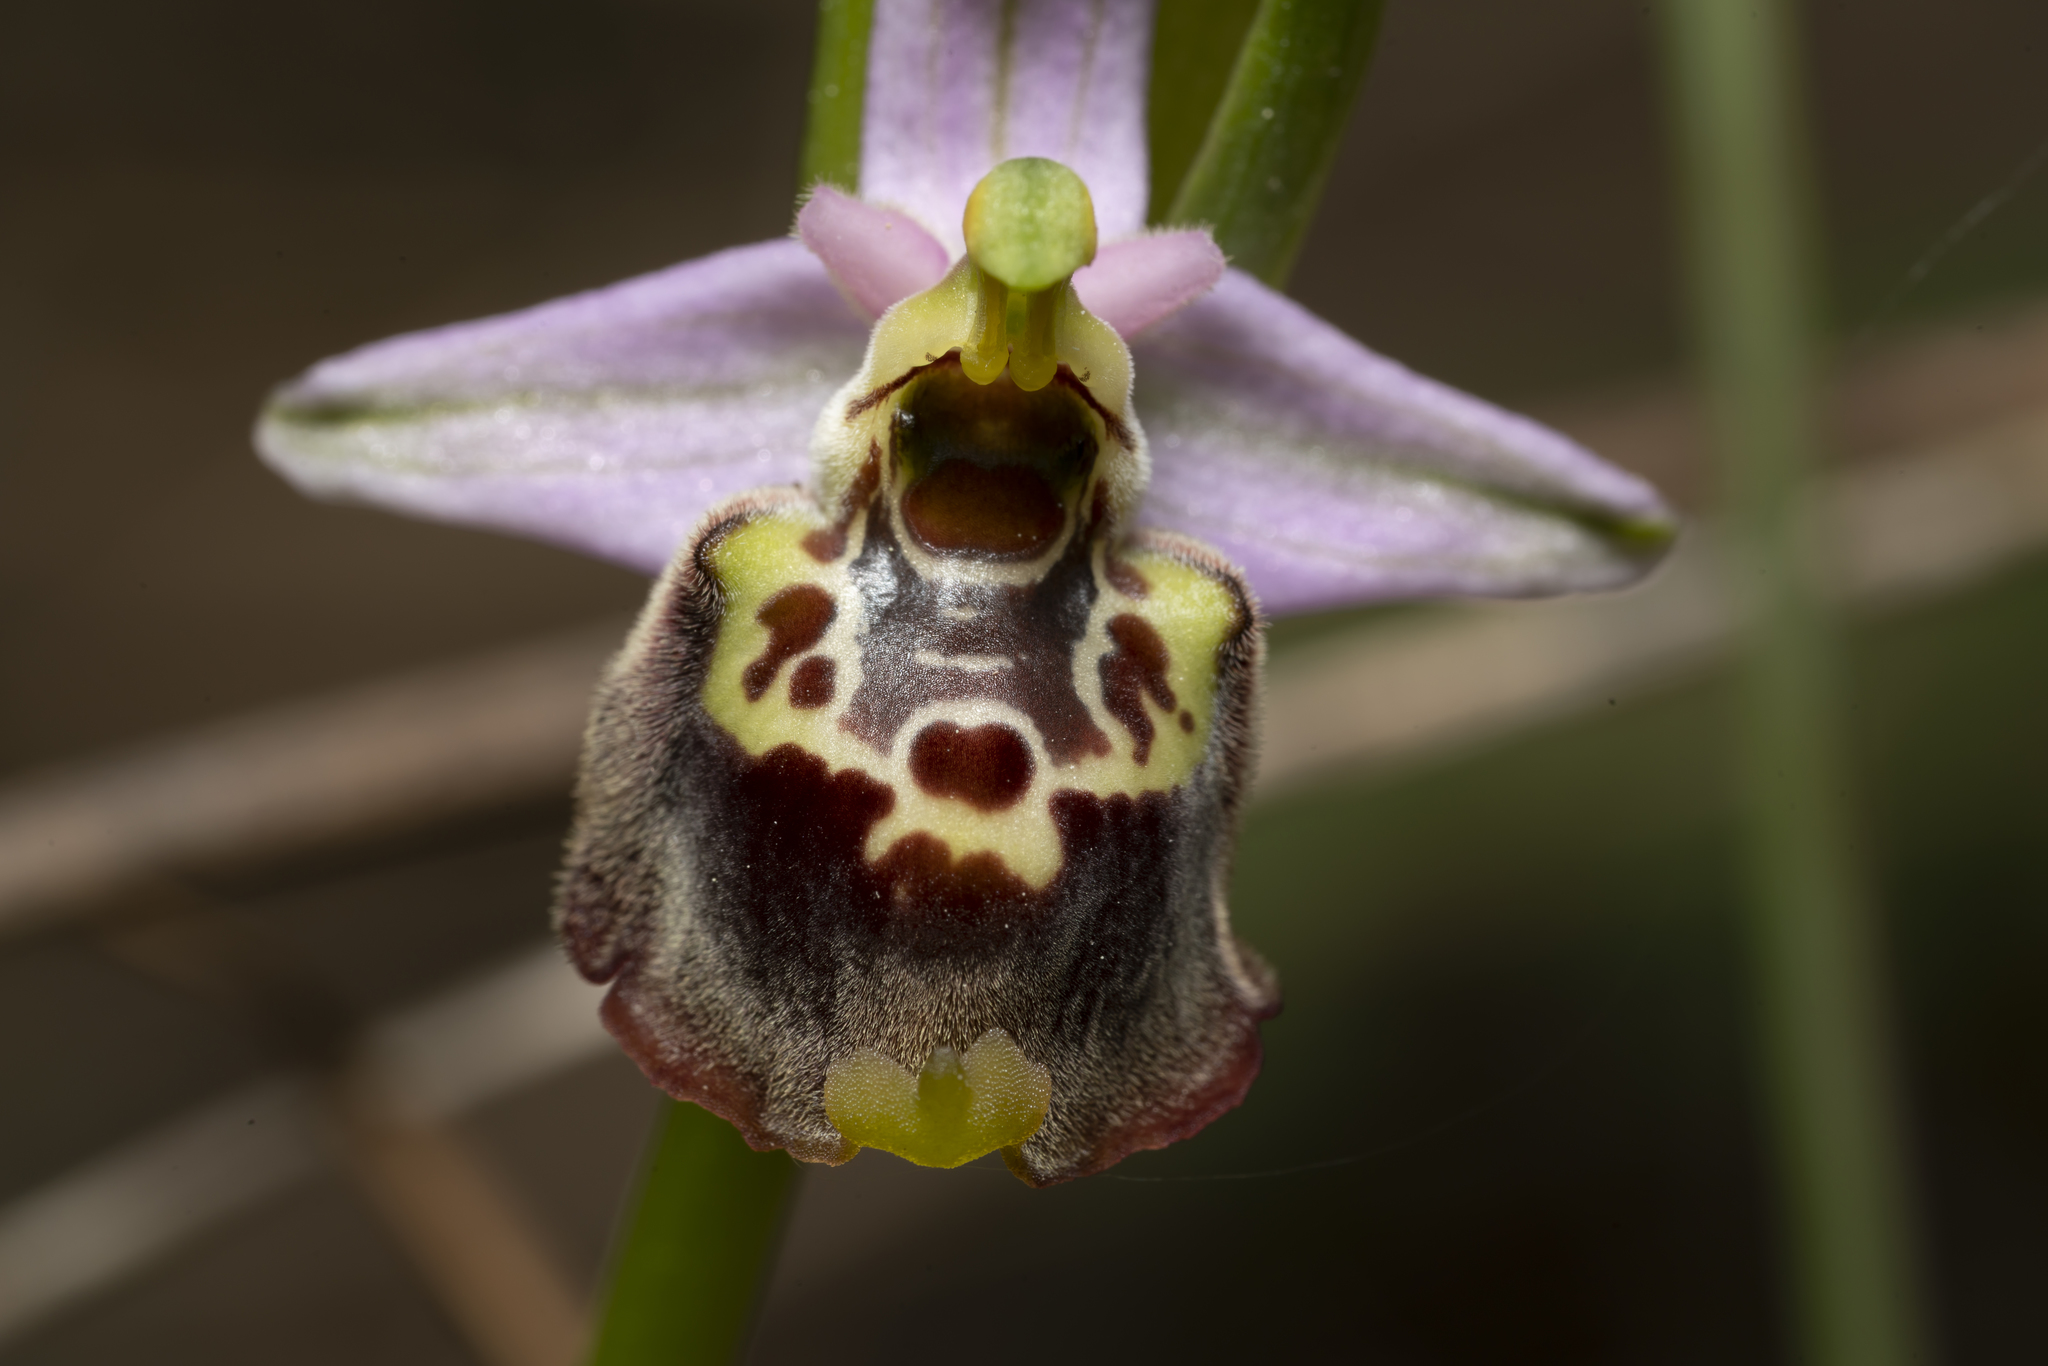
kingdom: Plantae
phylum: Tracheophyta
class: Liliopsida
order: Asparagales
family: Orchidaceae
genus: Ophrys
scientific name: Ophrys holosericea
